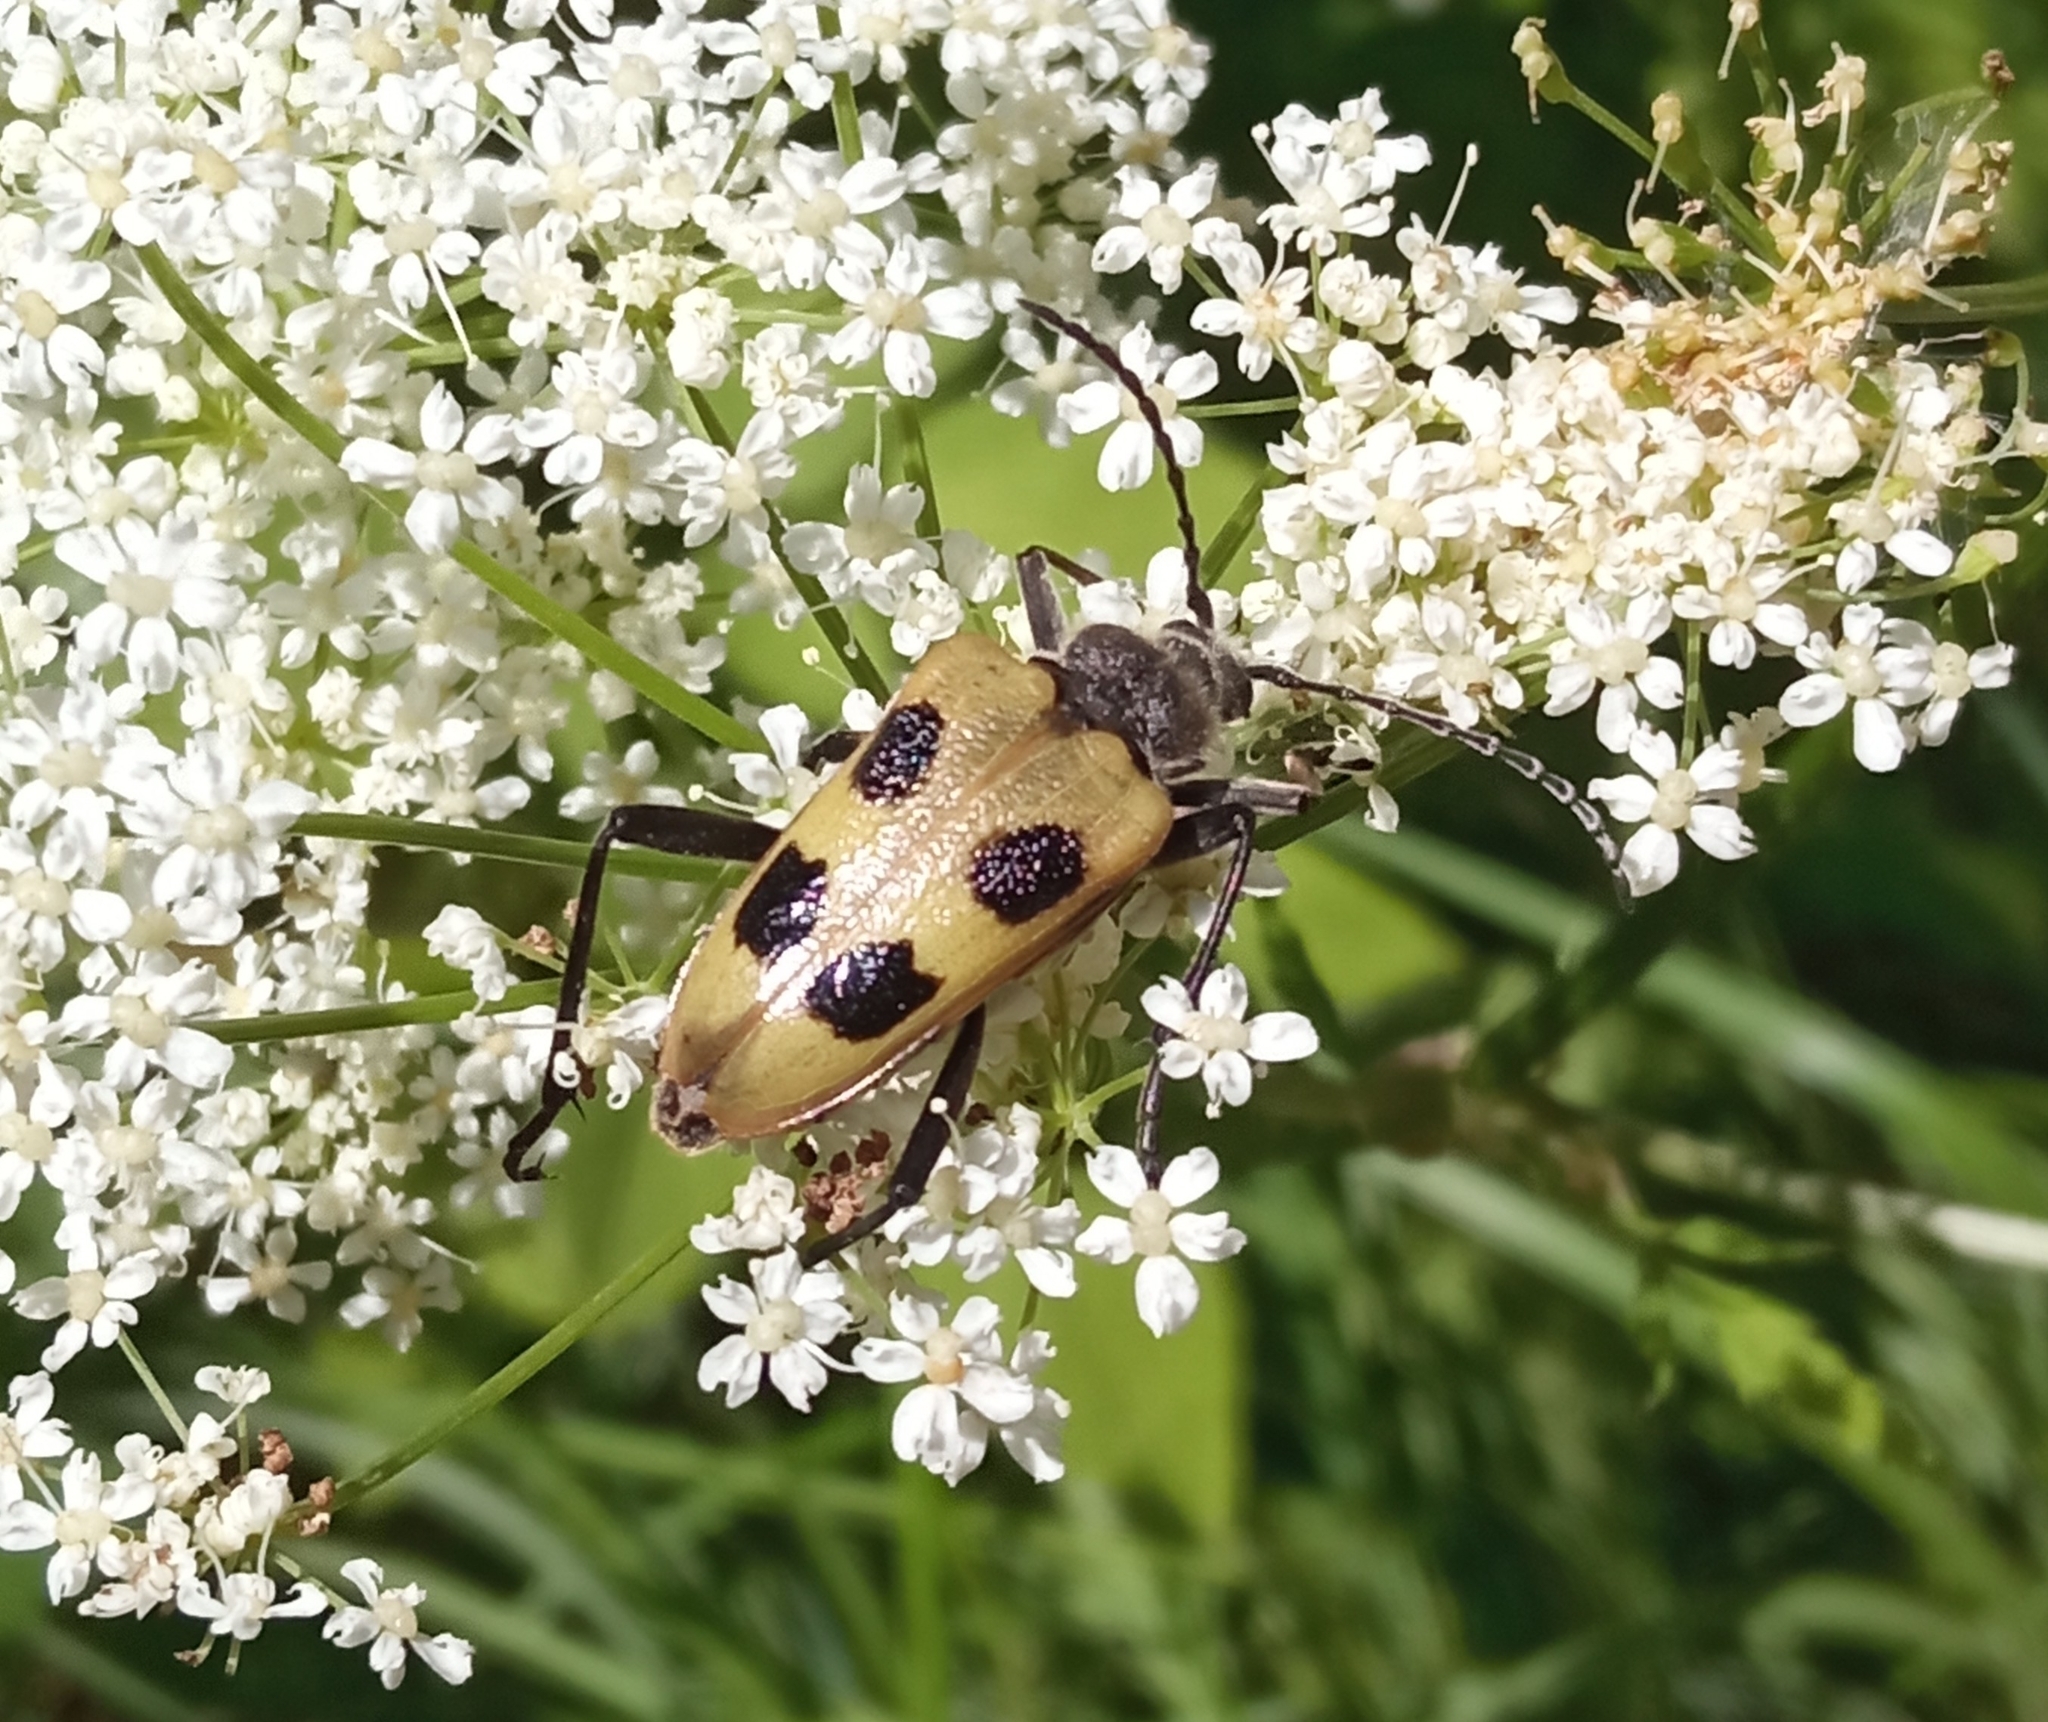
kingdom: Animalia
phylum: Arthropoda
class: Insecta
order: Coleoptera
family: Cerambycidae
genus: Pachyta
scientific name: Pachyta quadrimaculata
